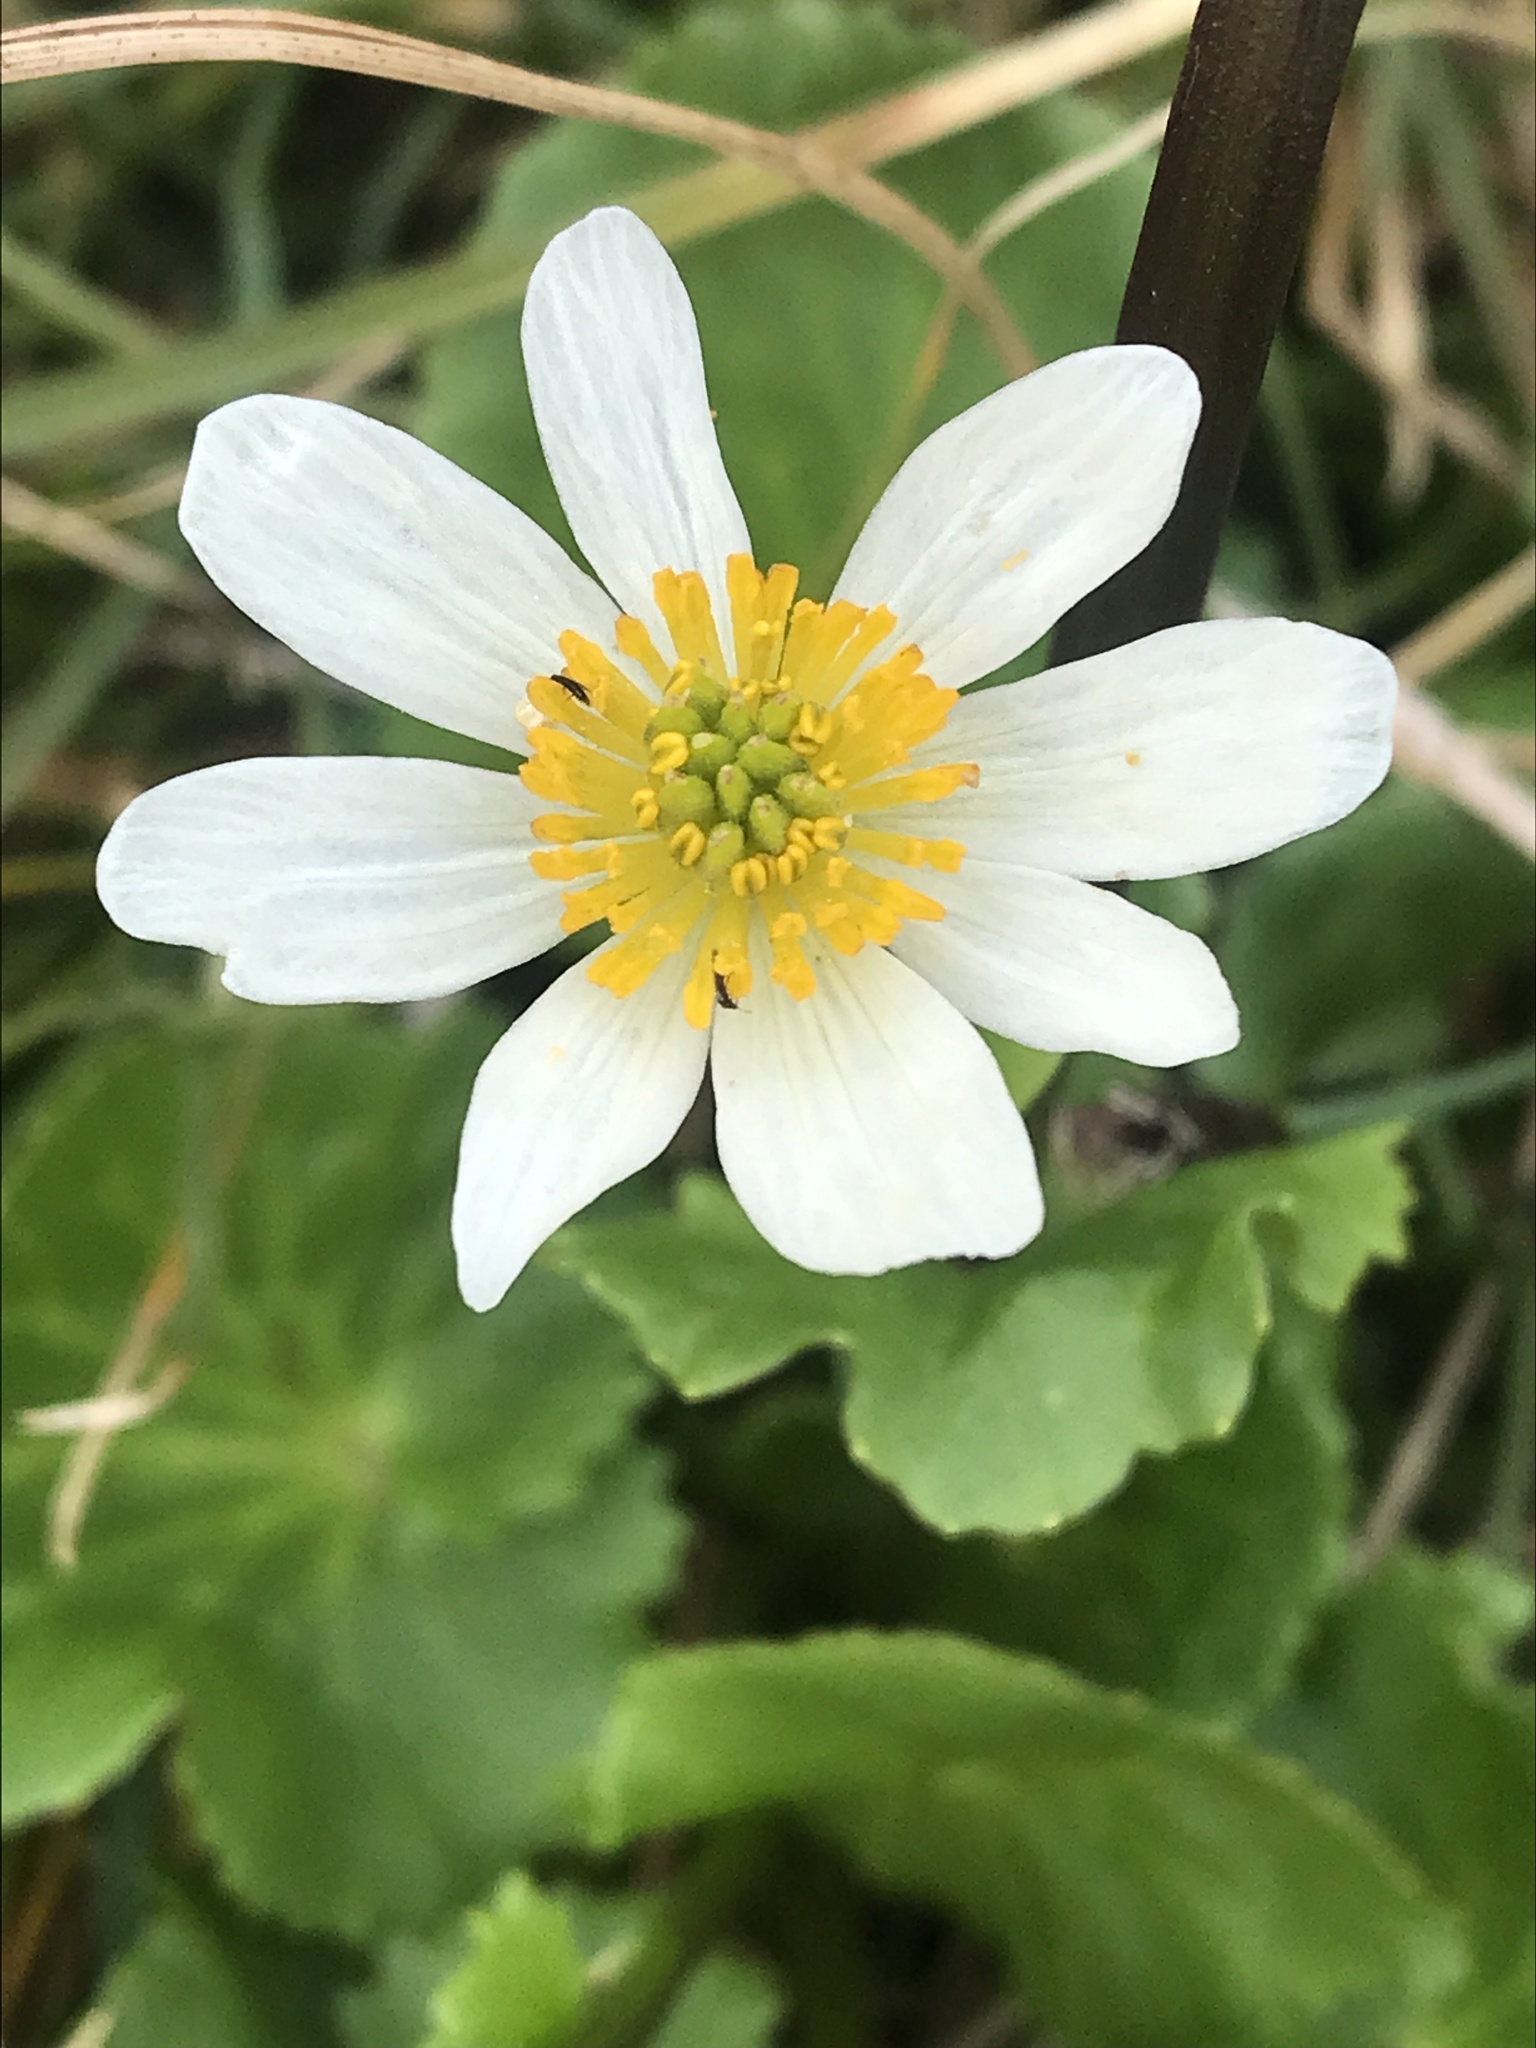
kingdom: Plantae
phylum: Tracheophyta
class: Magnoliopsida
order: Ranunculales
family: Ranunculaceae
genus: Caltha
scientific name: Caltha leptosepala
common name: Elkslip
